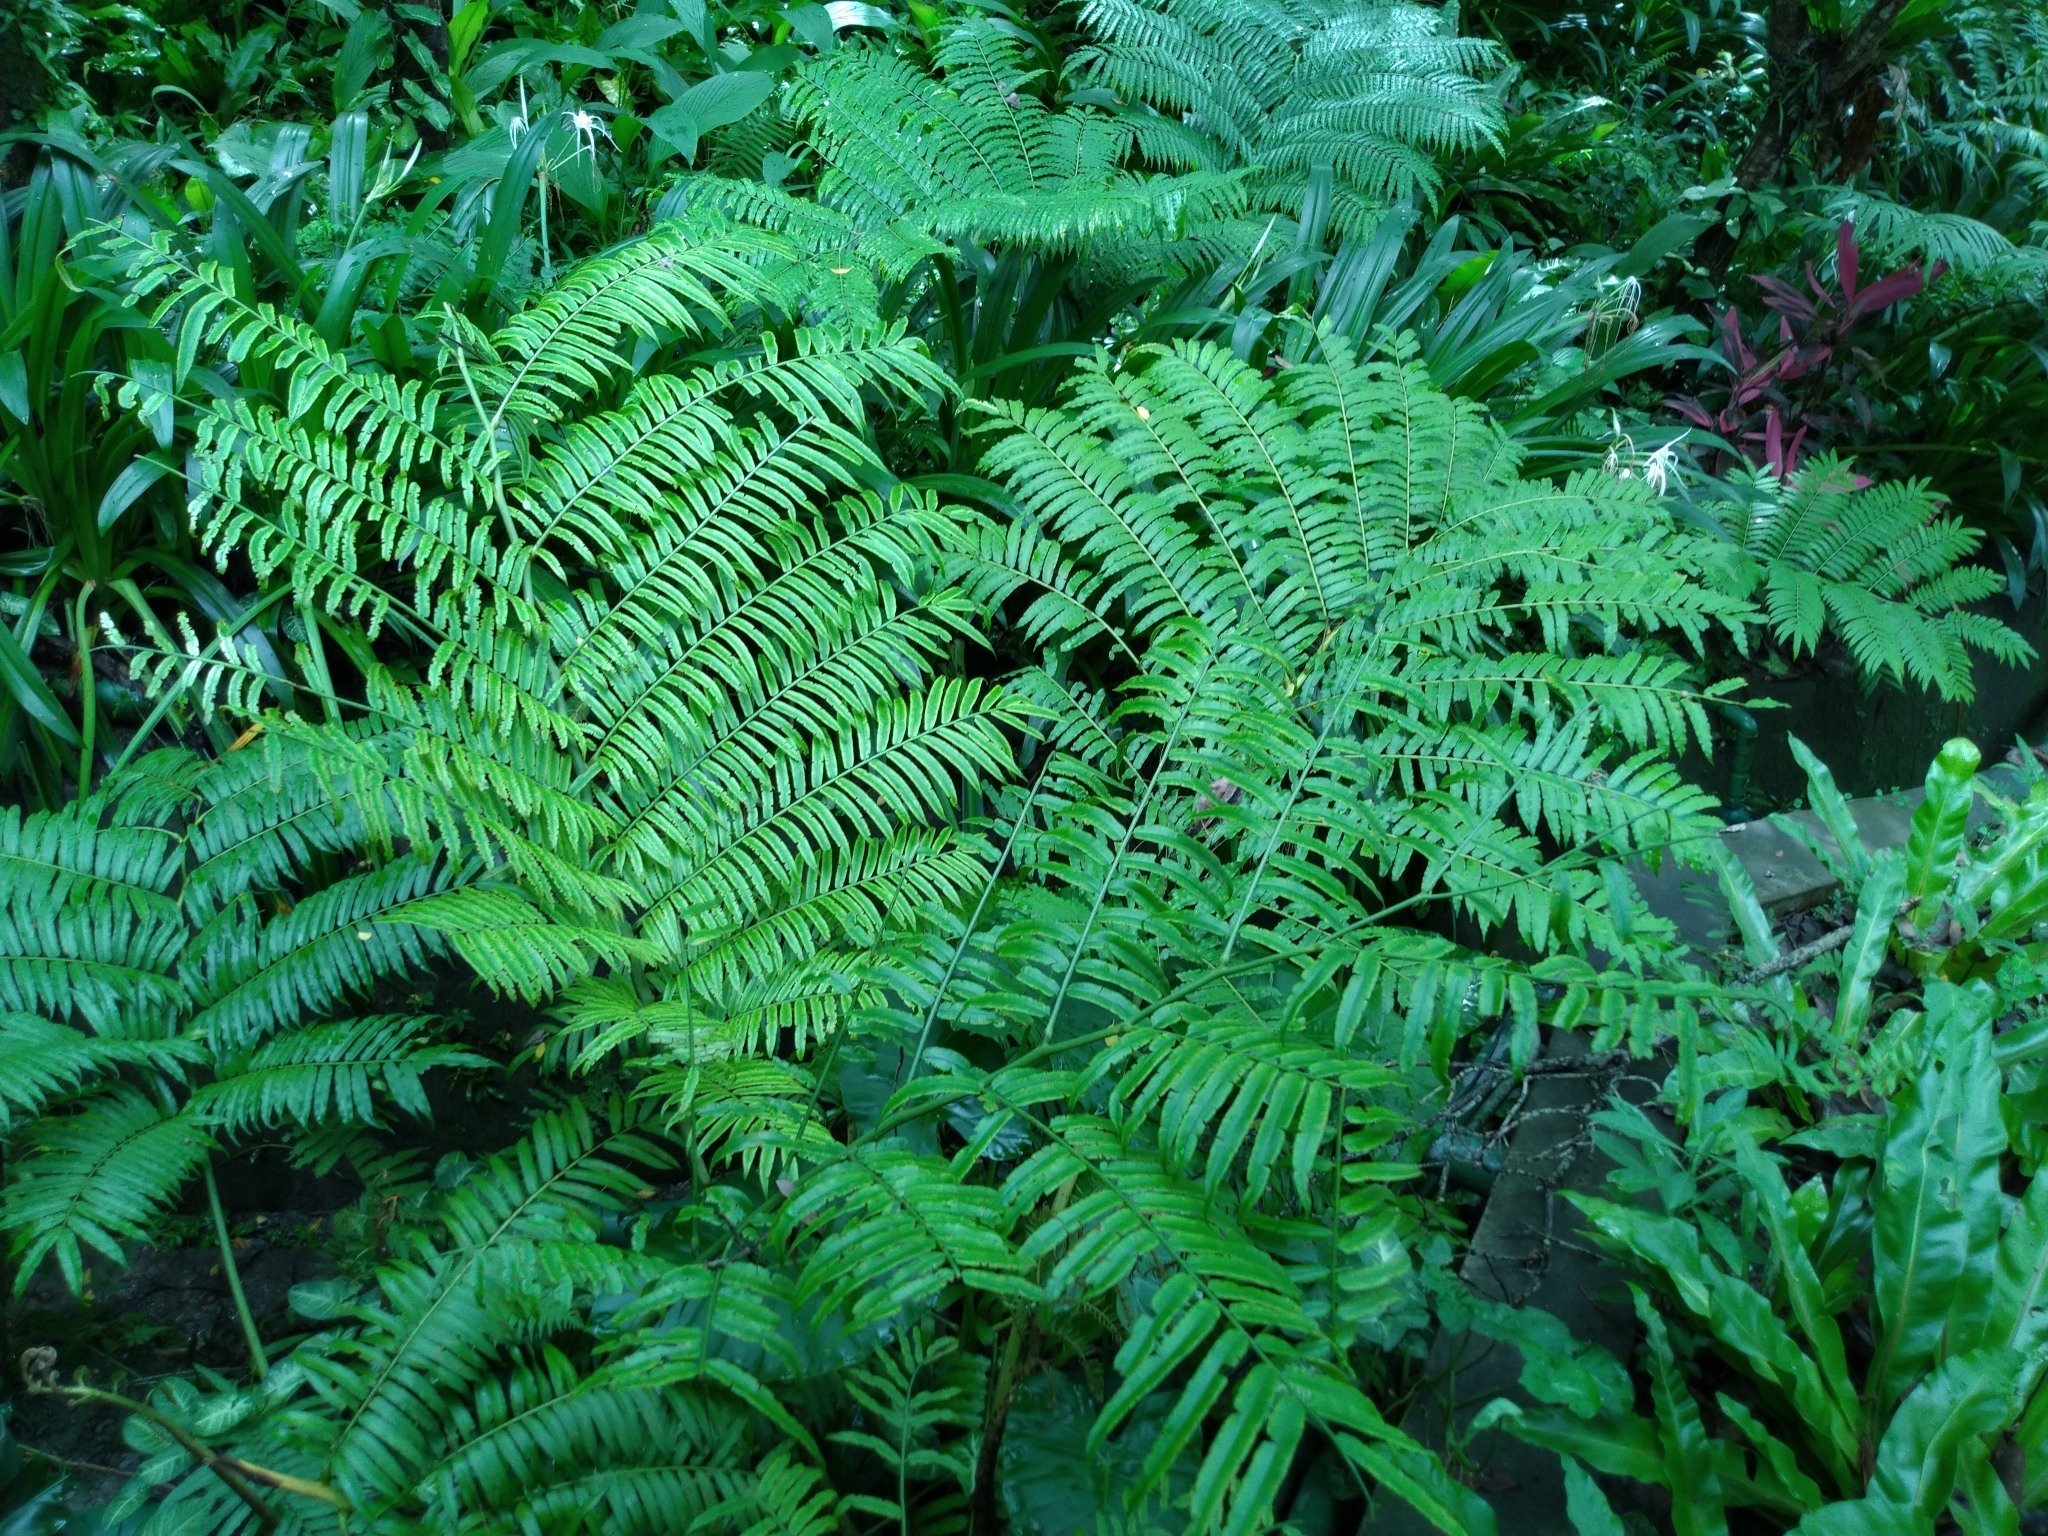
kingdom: Plantae
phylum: Tracheophyta
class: Polypodiopsida
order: Marattiales
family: Marattiaceae
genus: Angiopteris
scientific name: Angiopteris lygodiifolia
